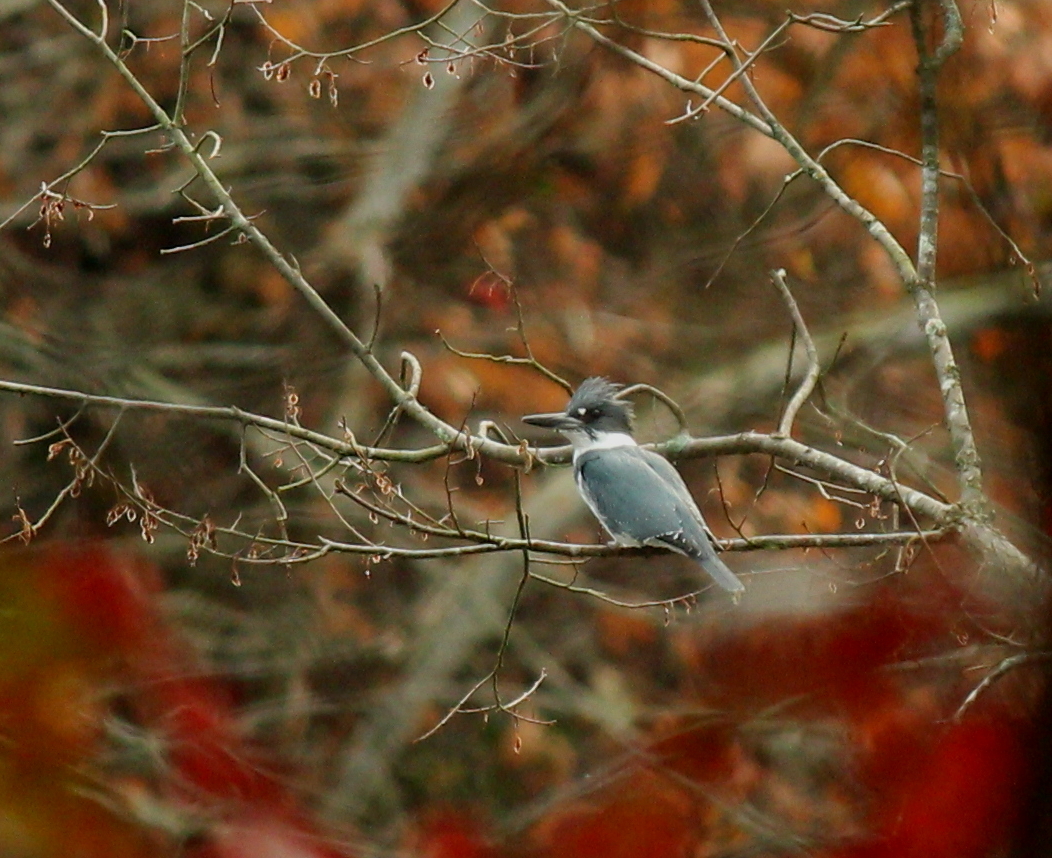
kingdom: Animalia
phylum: Chordata
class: Aves
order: Coraciiformes
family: Alcedinidae
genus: Megaceryle
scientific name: Megaceryle alcyon
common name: Belted kingfisher
